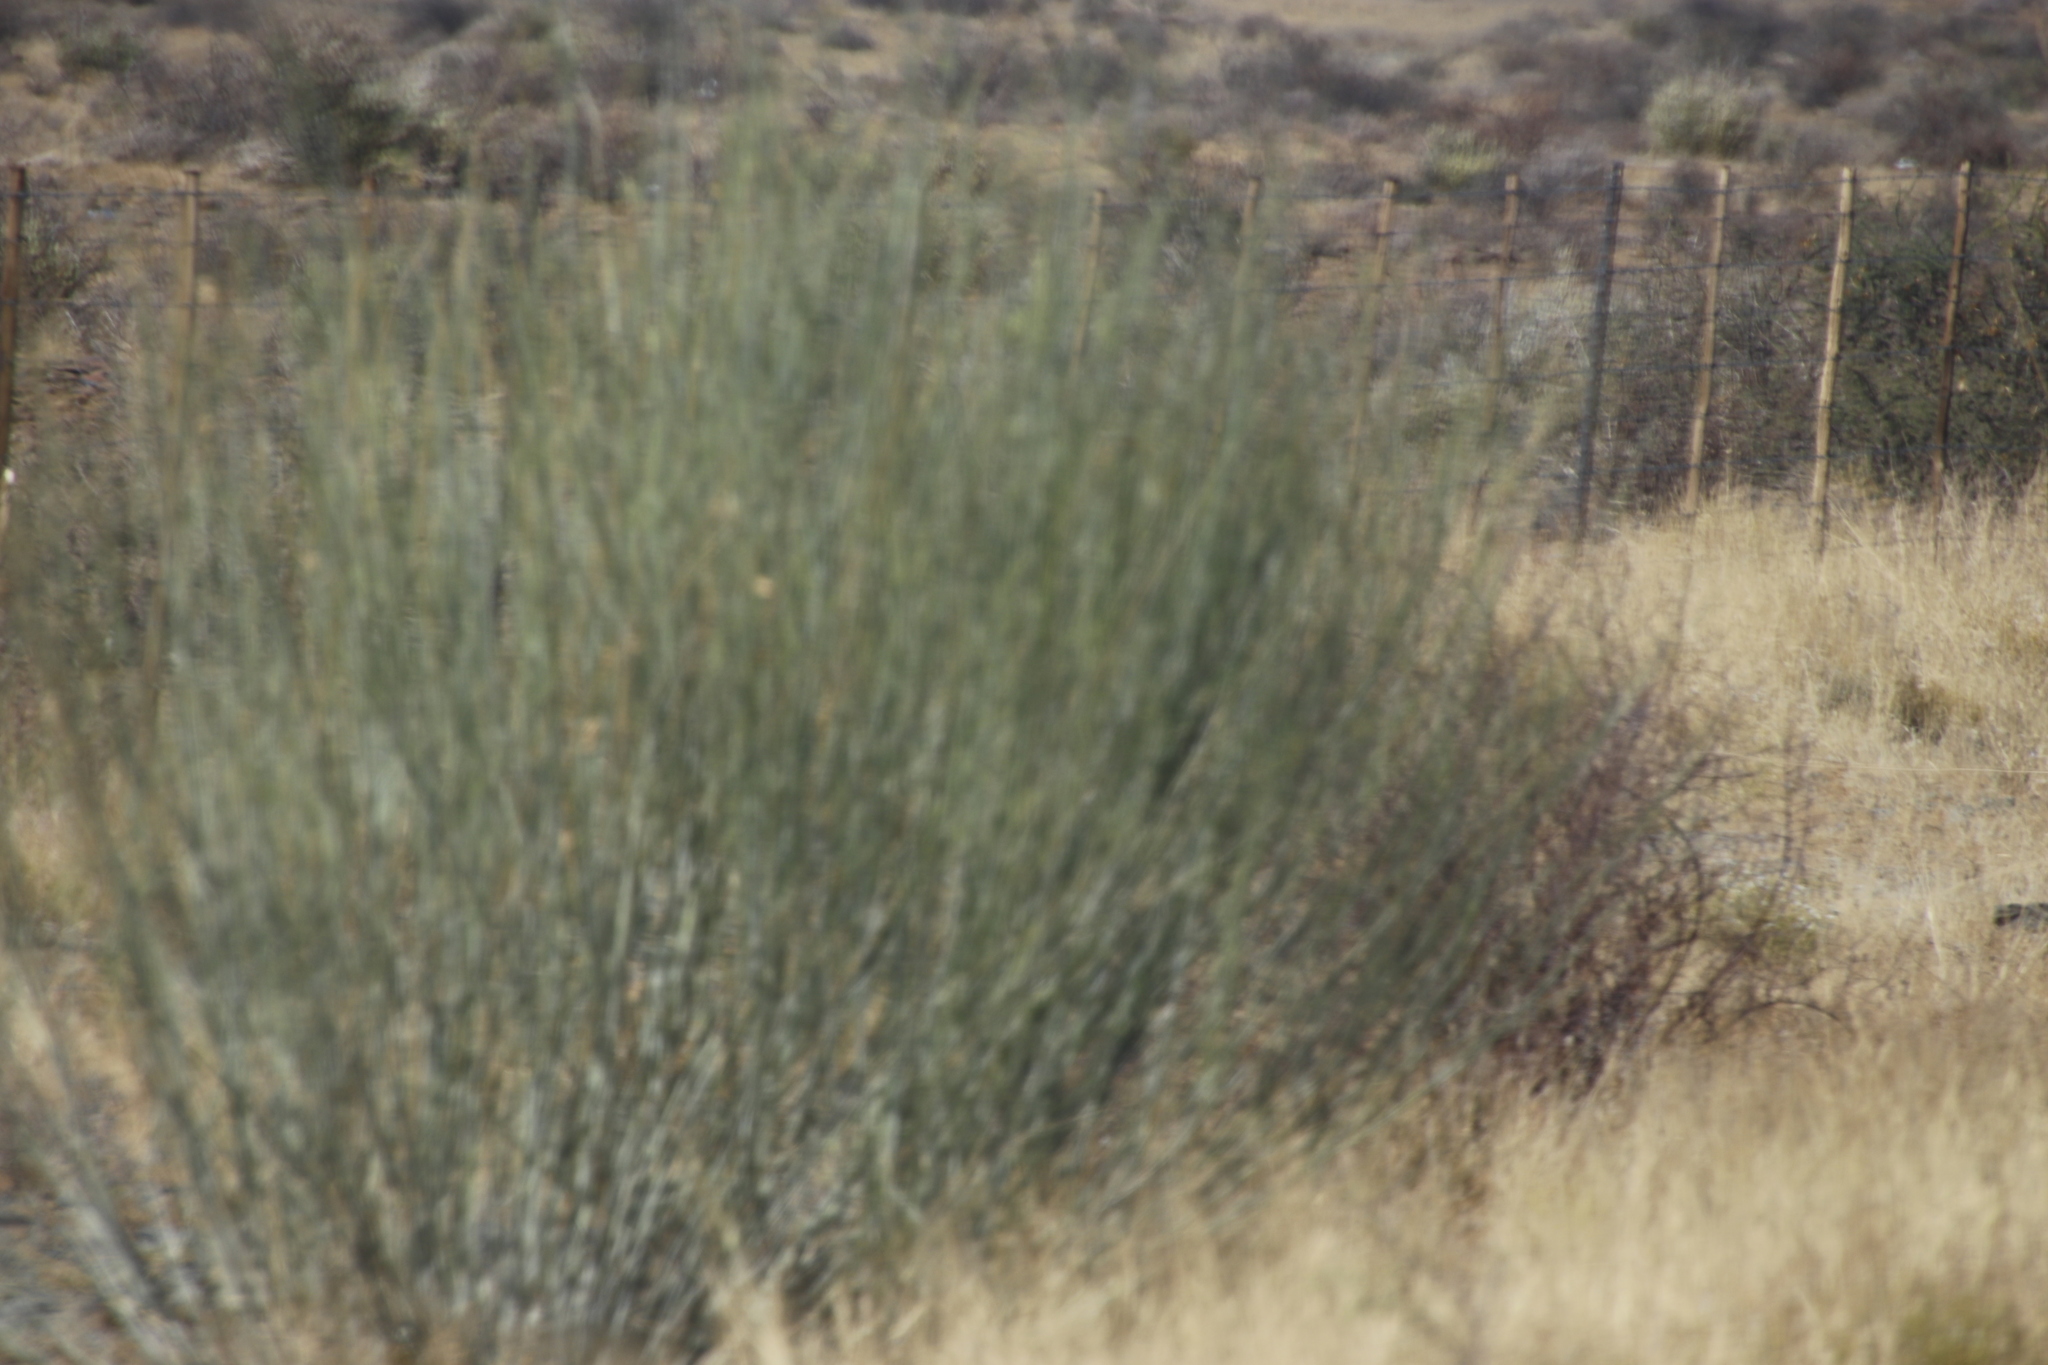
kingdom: Plantae
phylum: Tracheophyta
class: Magnoliopsida
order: Gentianales
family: Apocynaceae
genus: Gomphocarpus
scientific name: Gomphocarpus filiformis
